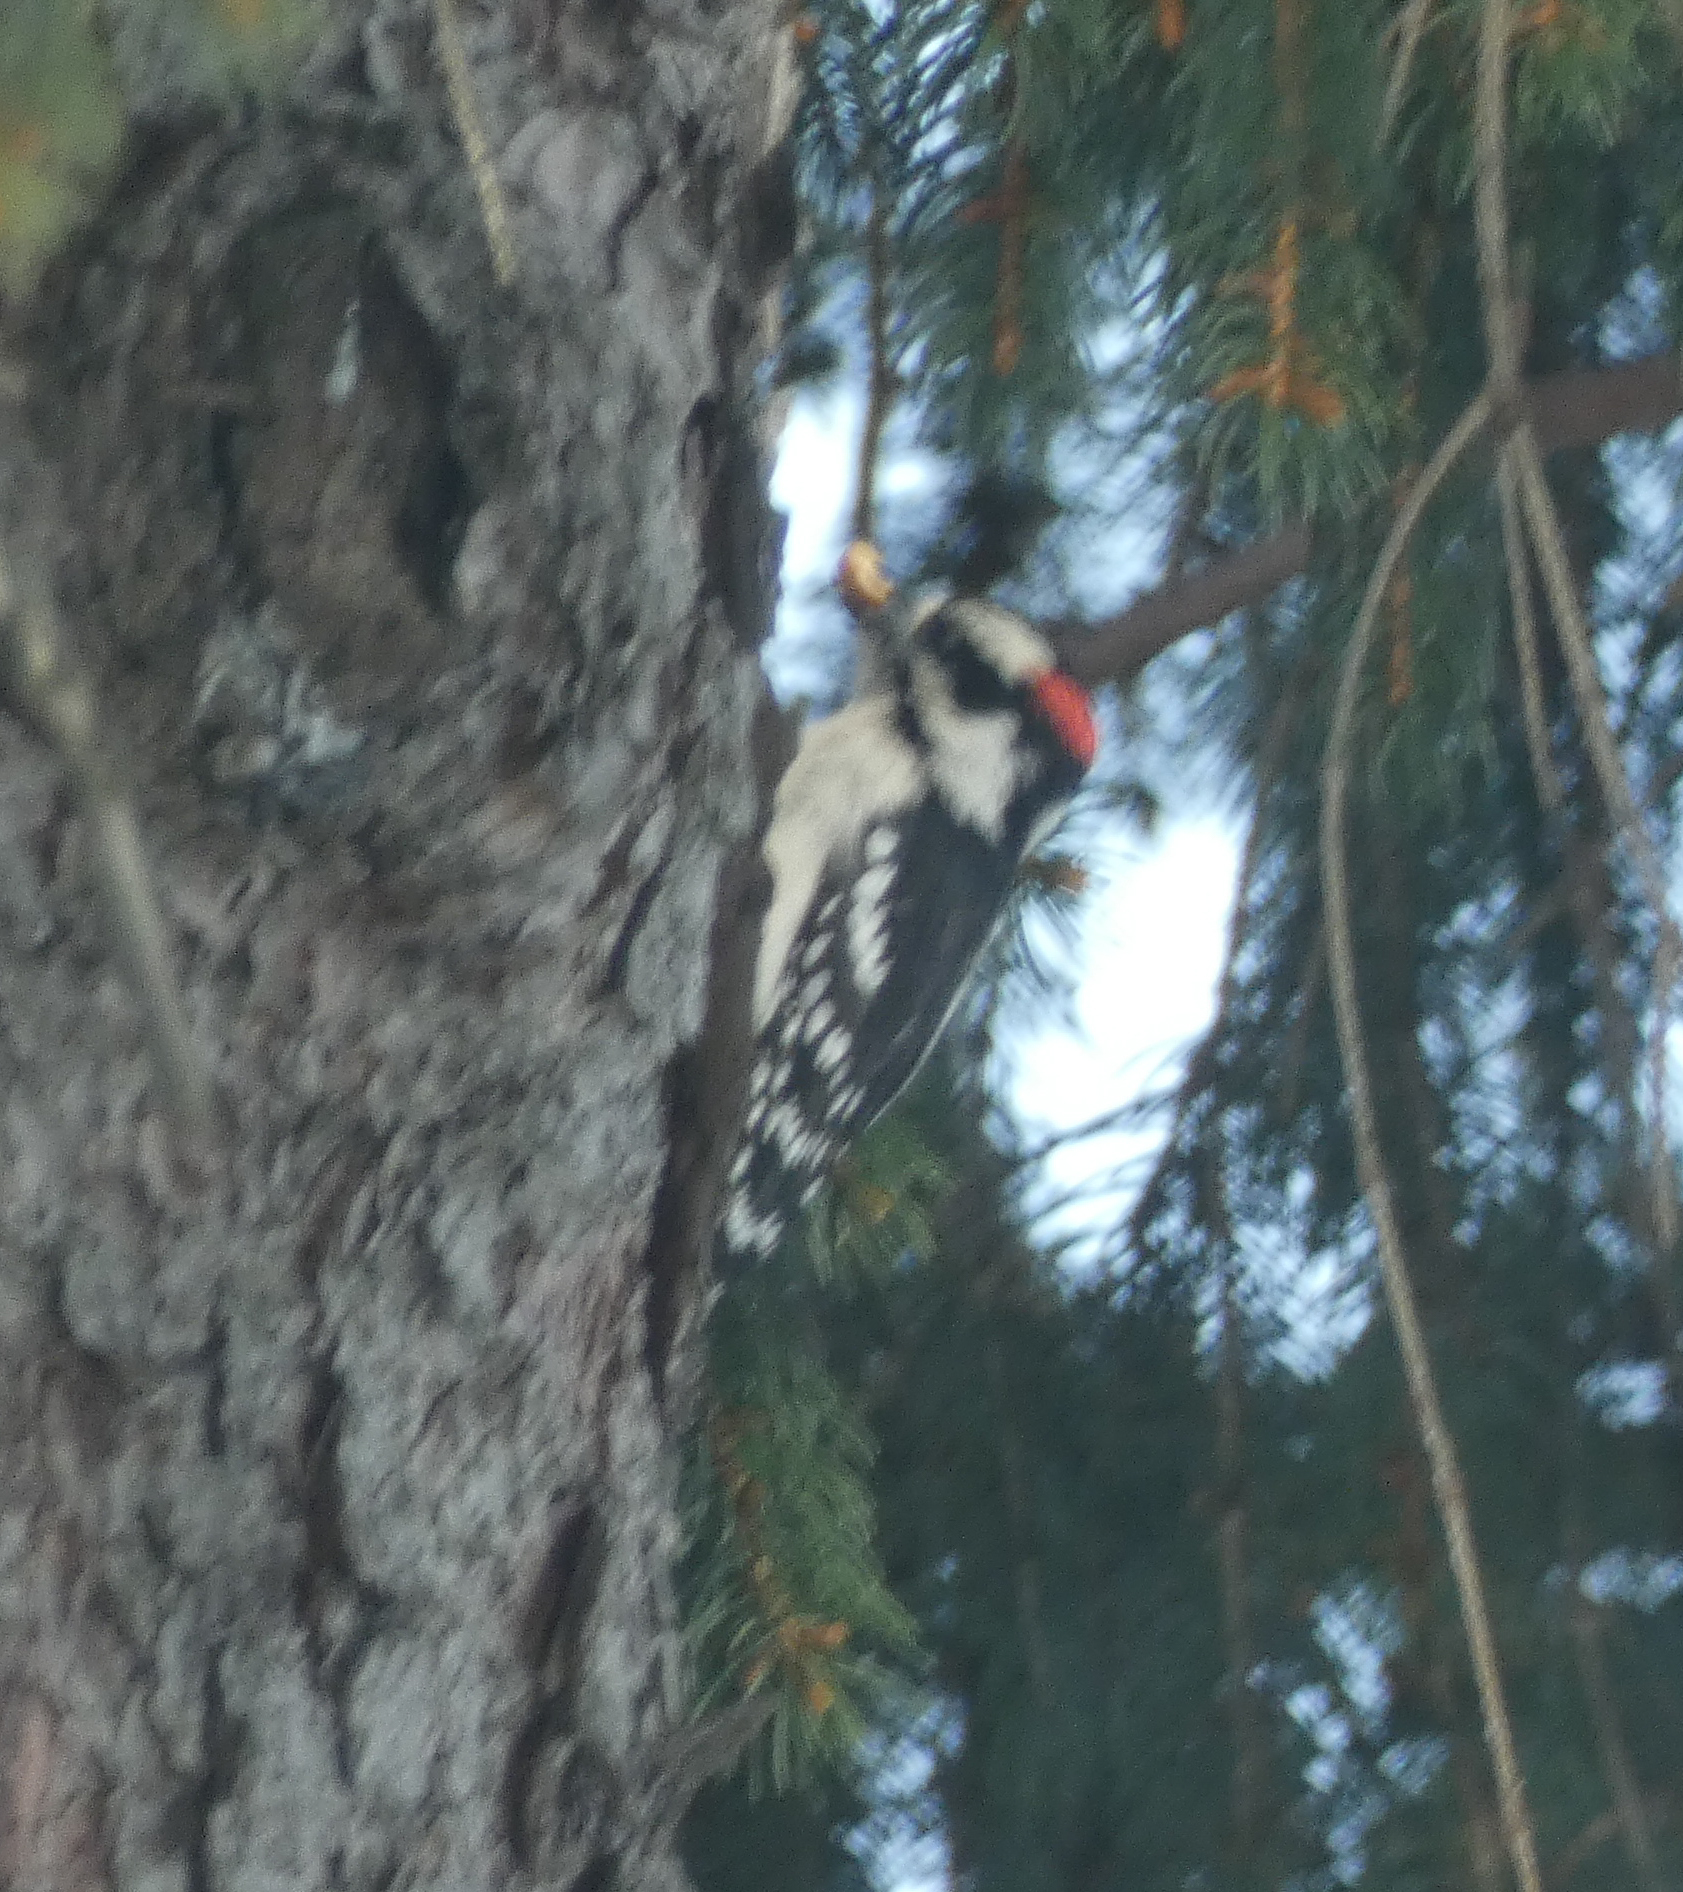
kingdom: Animalia
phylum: Chordata
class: Aves
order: Piciformes
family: Picidae
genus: Dryobates
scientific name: Dryobates pubescens
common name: Downy woodpecker
